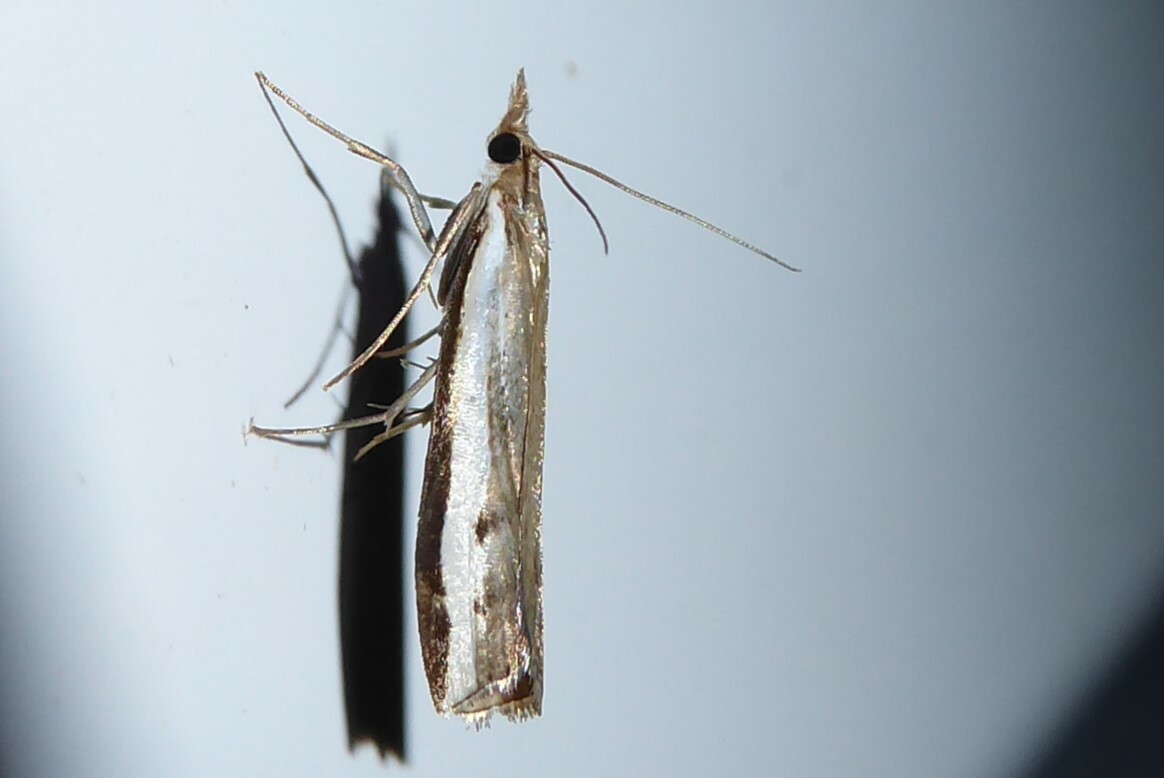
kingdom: Animalia
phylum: Arthropoda
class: Insecta
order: Lepidoptera
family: Crambidae
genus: Orocrambus
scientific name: Orocrambus flexuosellus
